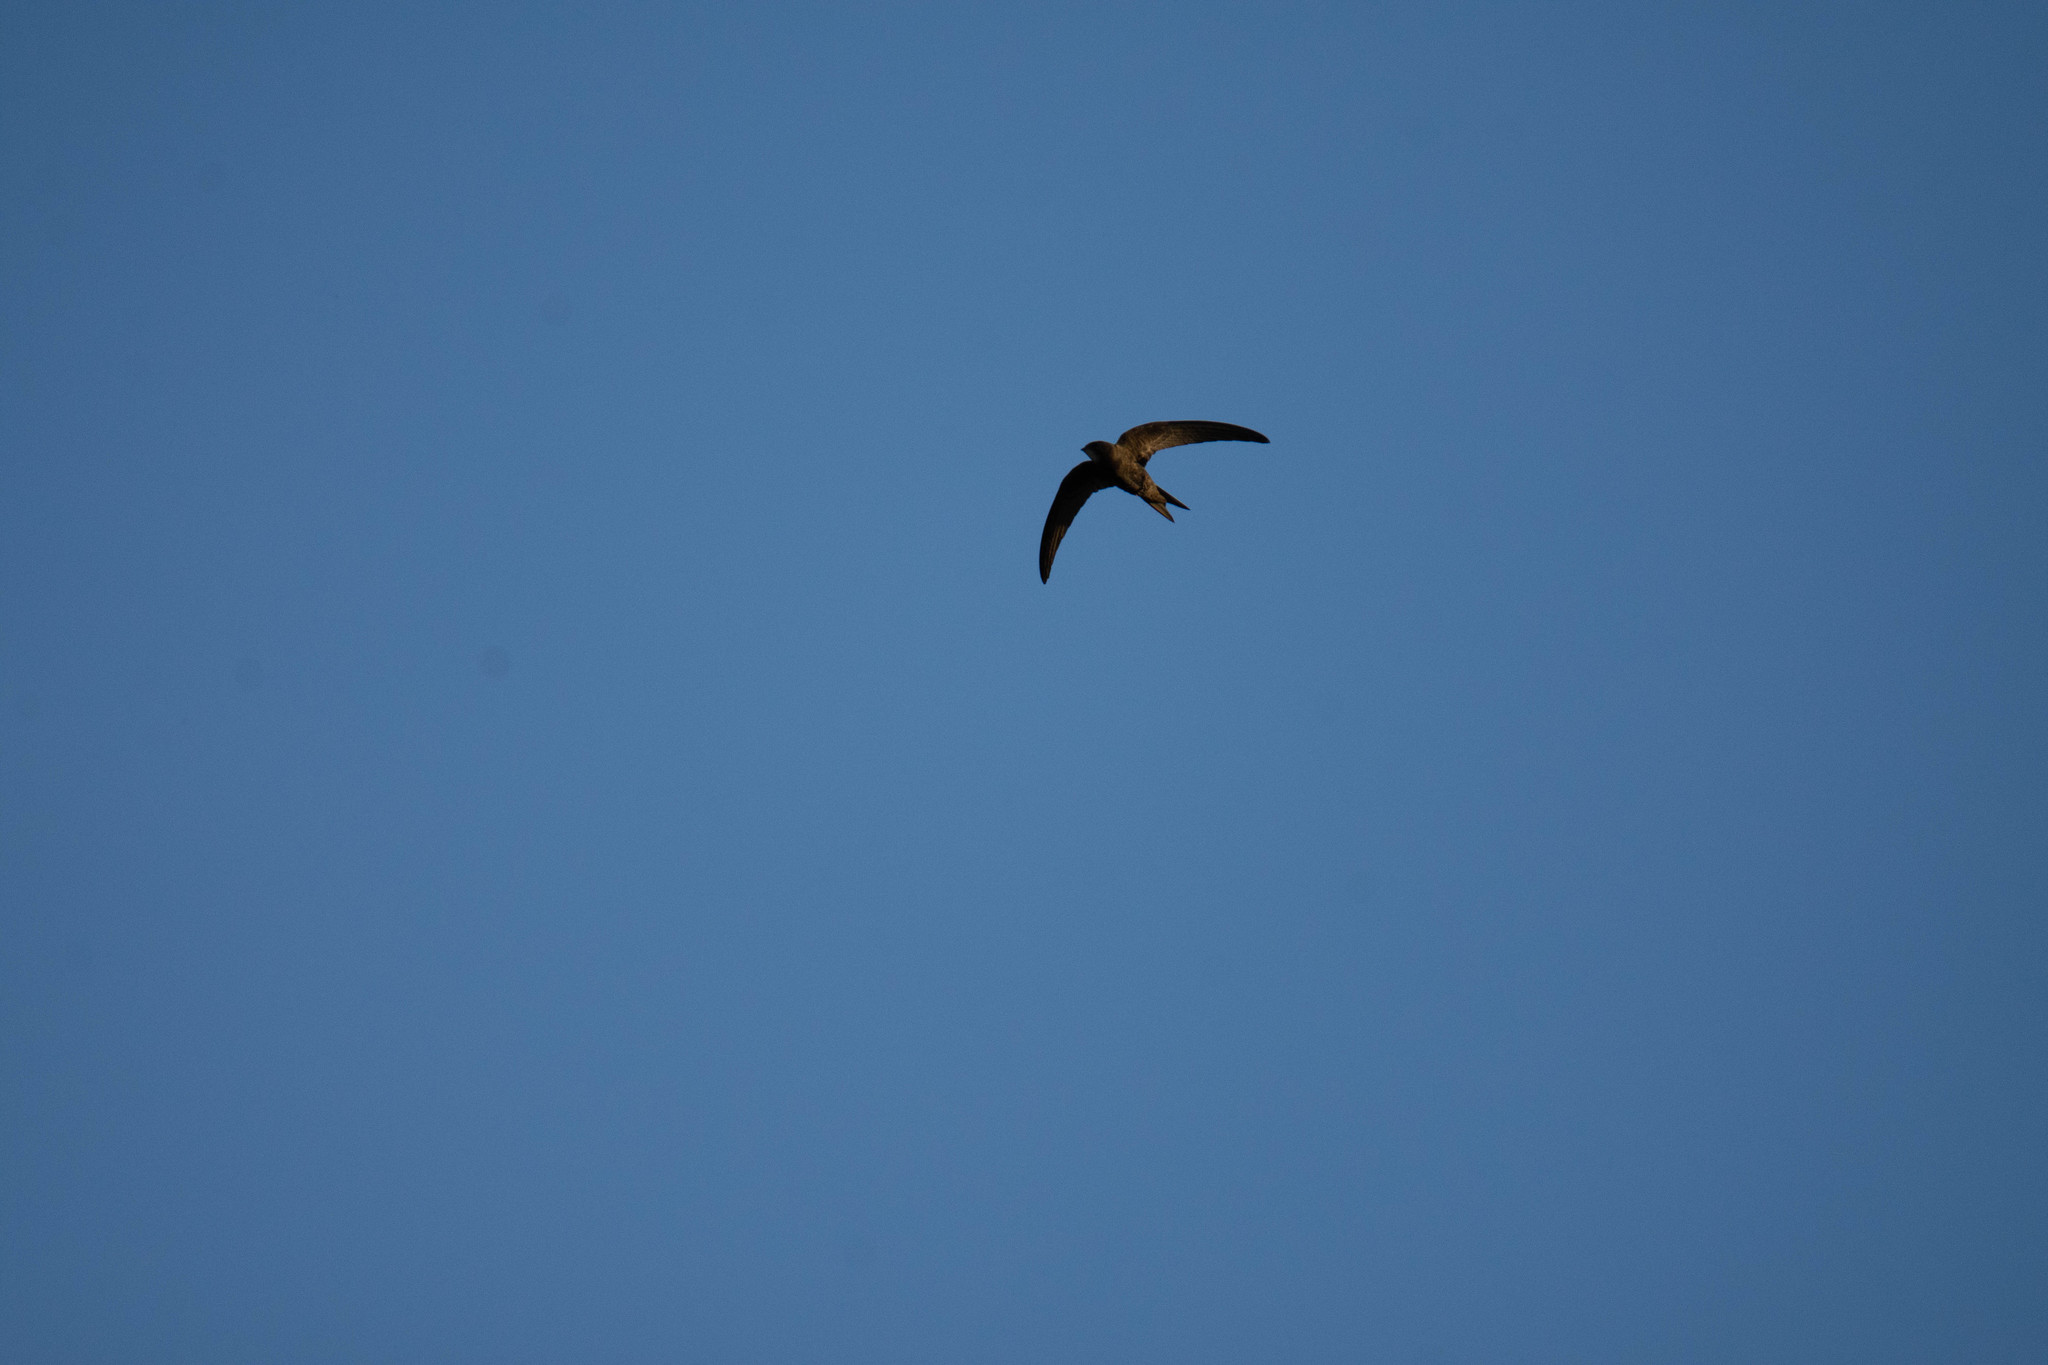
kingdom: Animalia
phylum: Chordata
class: Aves
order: Apodiformes
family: Apodidae
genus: Apus
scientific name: Apus apus
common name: Common swift
